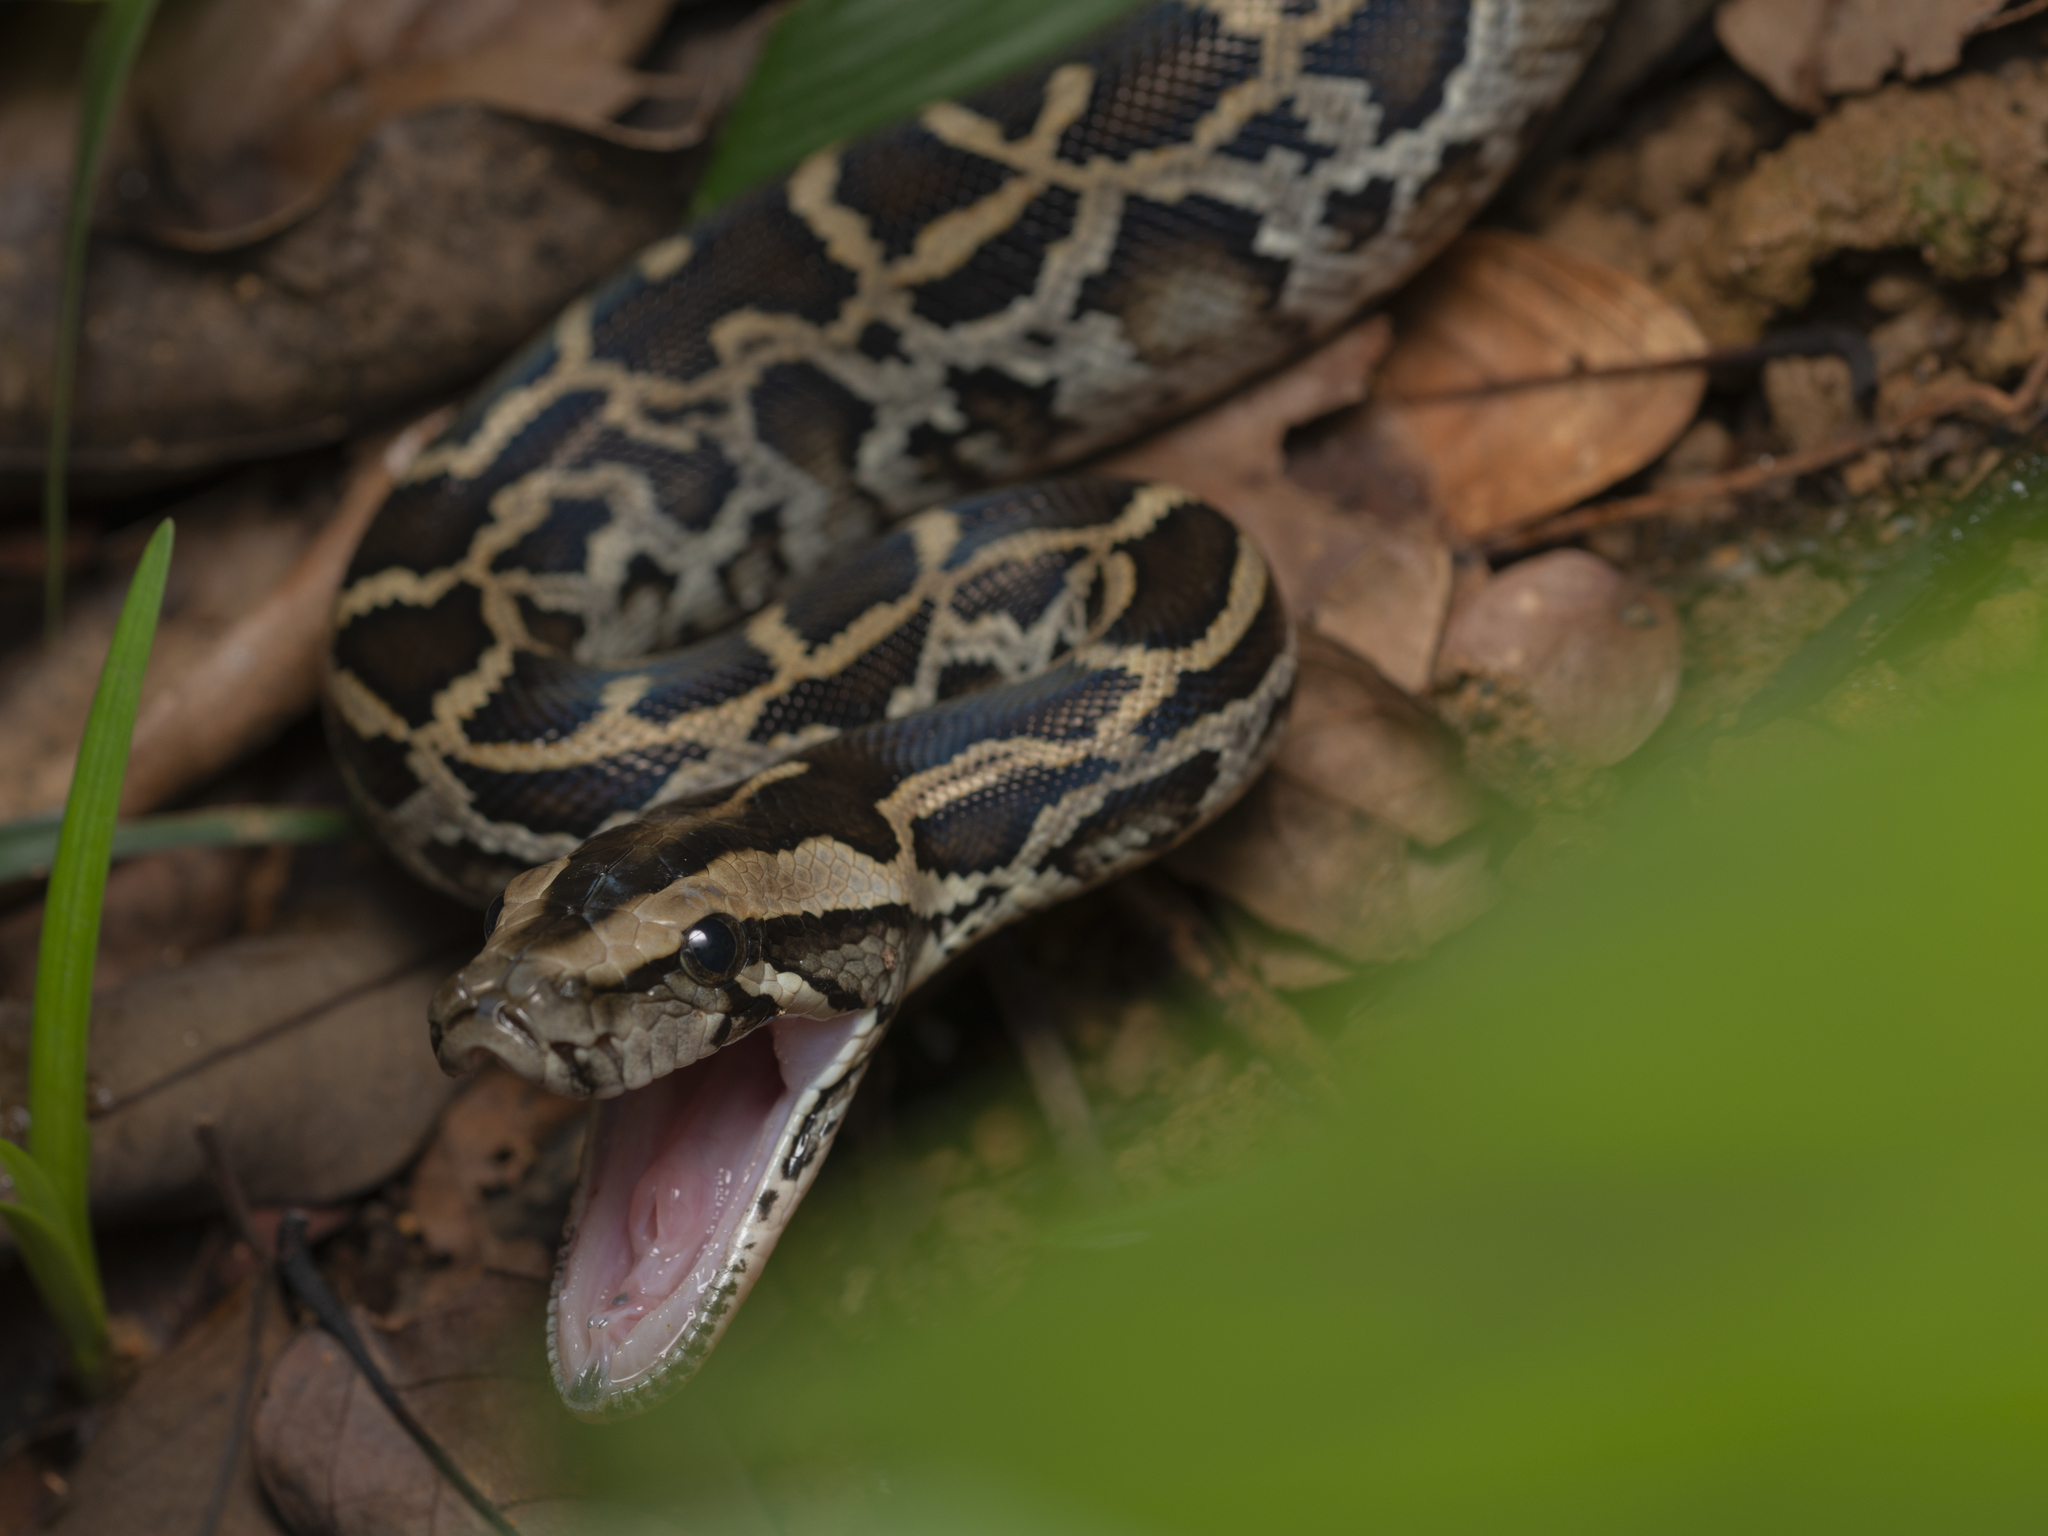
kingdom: Animalia
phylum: Chordata
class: Squamata
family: Pythonidae
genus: Python
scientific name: Python bivittatus
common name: Burmese python
